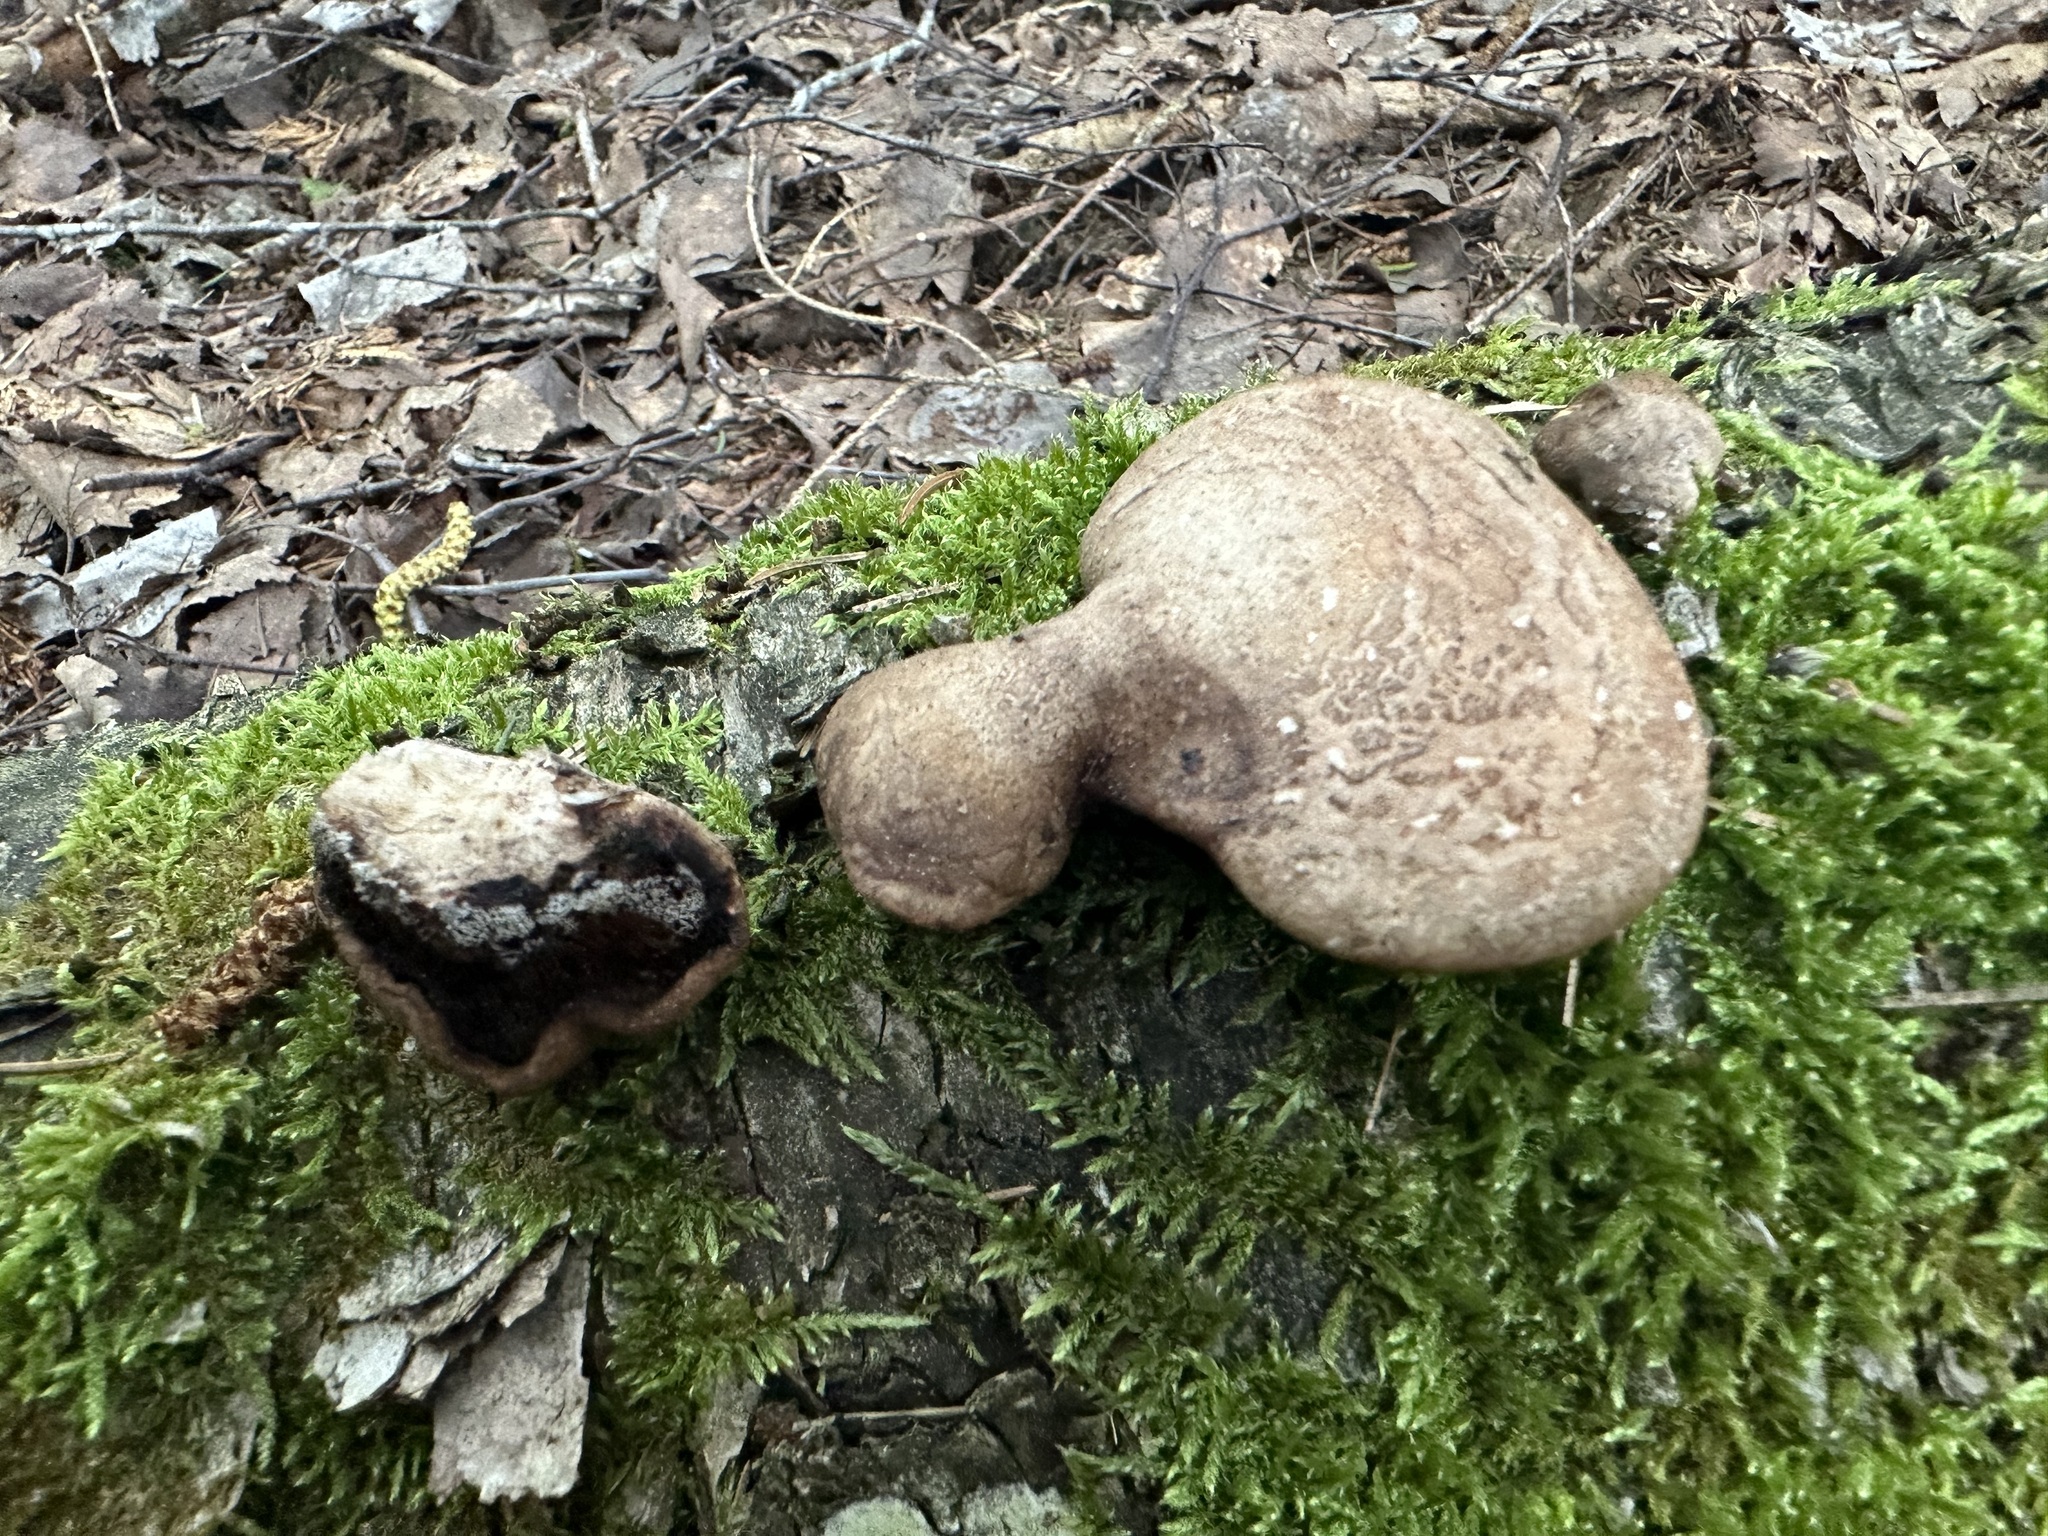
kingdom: Fungi
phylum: Basidiomycota
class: Agaricomycetes
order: Polyporales
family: Fomitopsidaceae
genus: Fomitopsis
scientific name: Fomitopsis betulina
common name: Birch polypore
